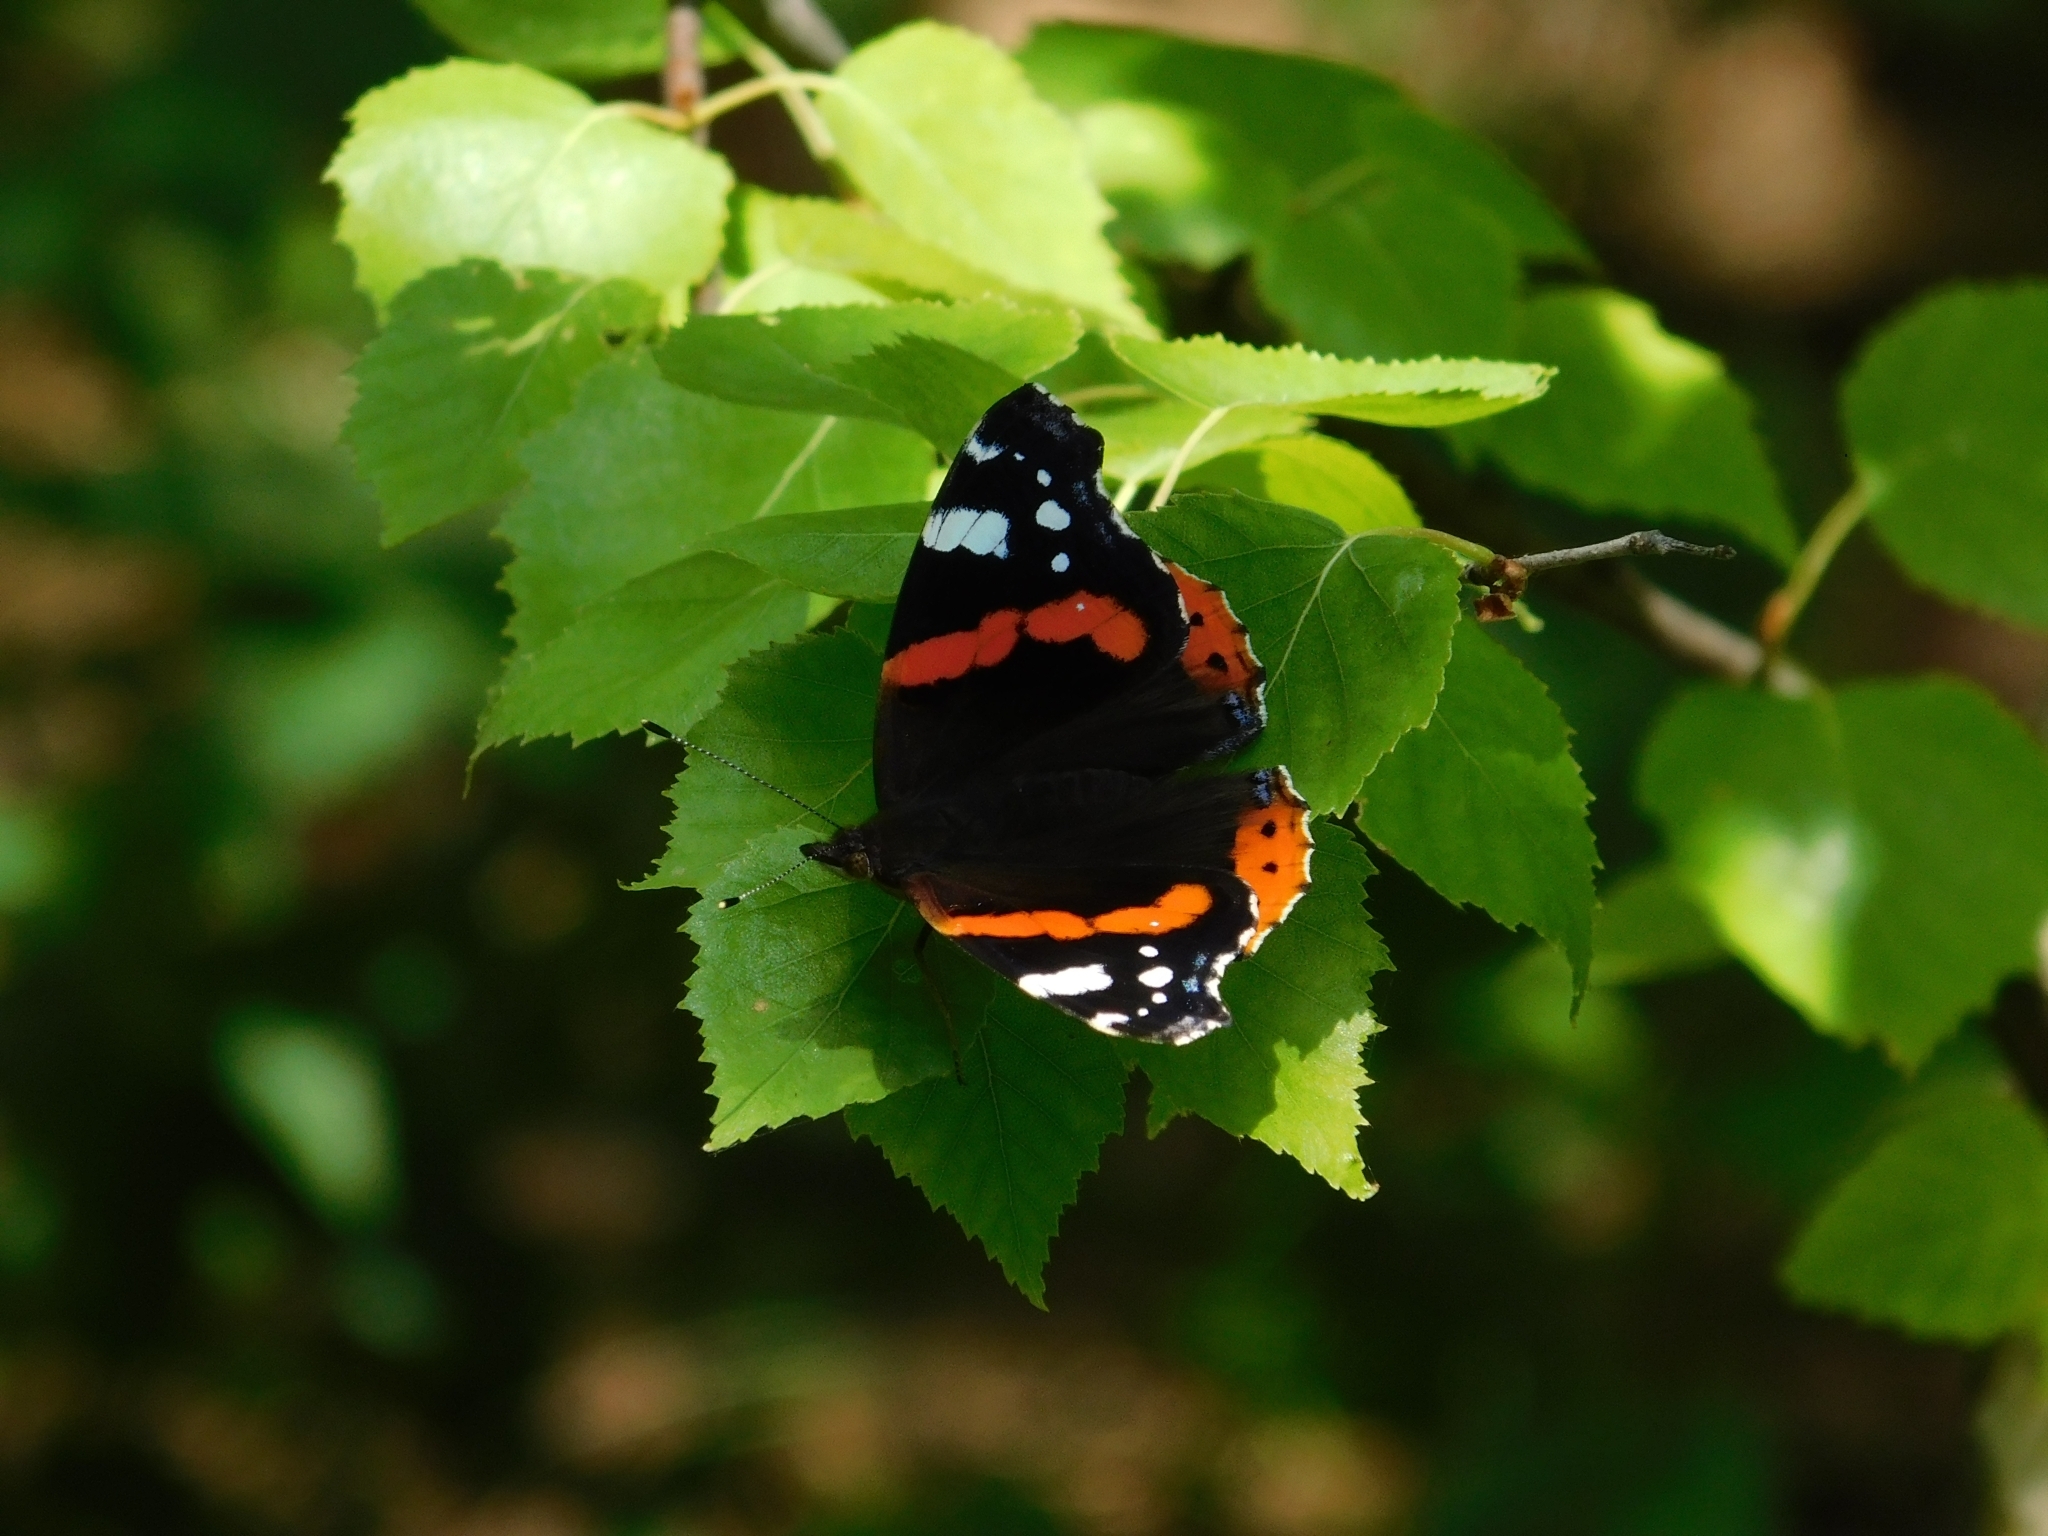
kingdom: Animalia
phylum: Arthropoda
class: Insecta
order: Lepidoptera
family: Nymphalidae
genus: Vanessa
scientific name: Vanessa atalanta
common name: Red admiral
